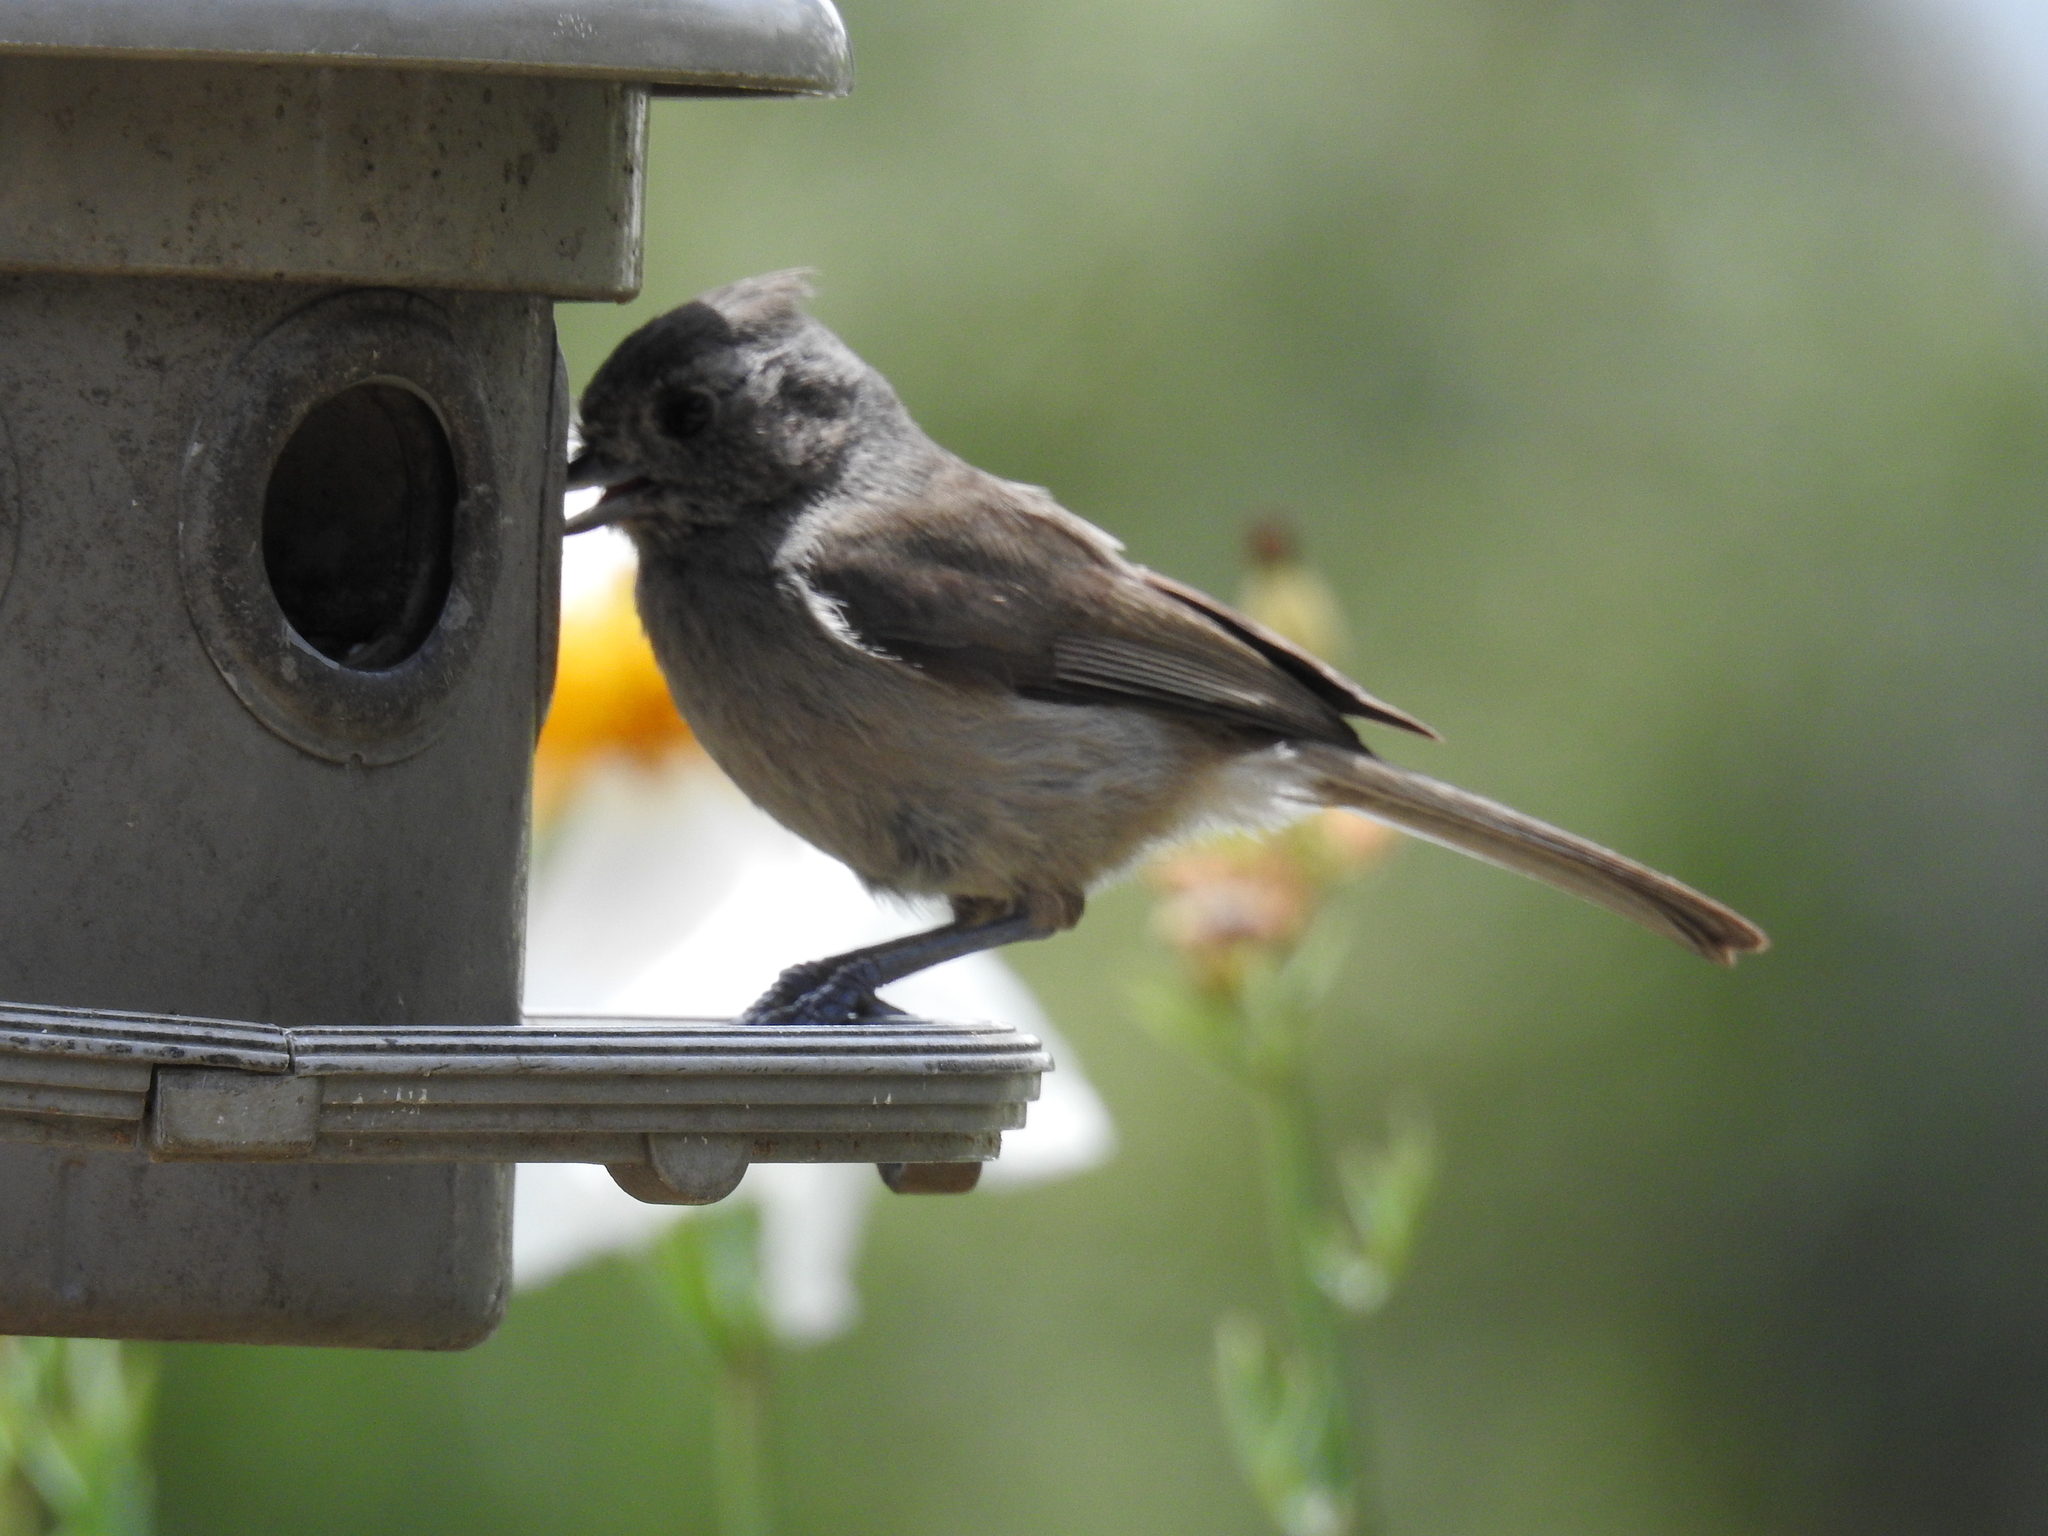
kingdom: Animalia
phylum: Chordata
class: Aves
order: Passeriformes
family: Paridae
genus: Baeolophus
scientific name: Baeolophus inornatus
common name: Oak titmouse
